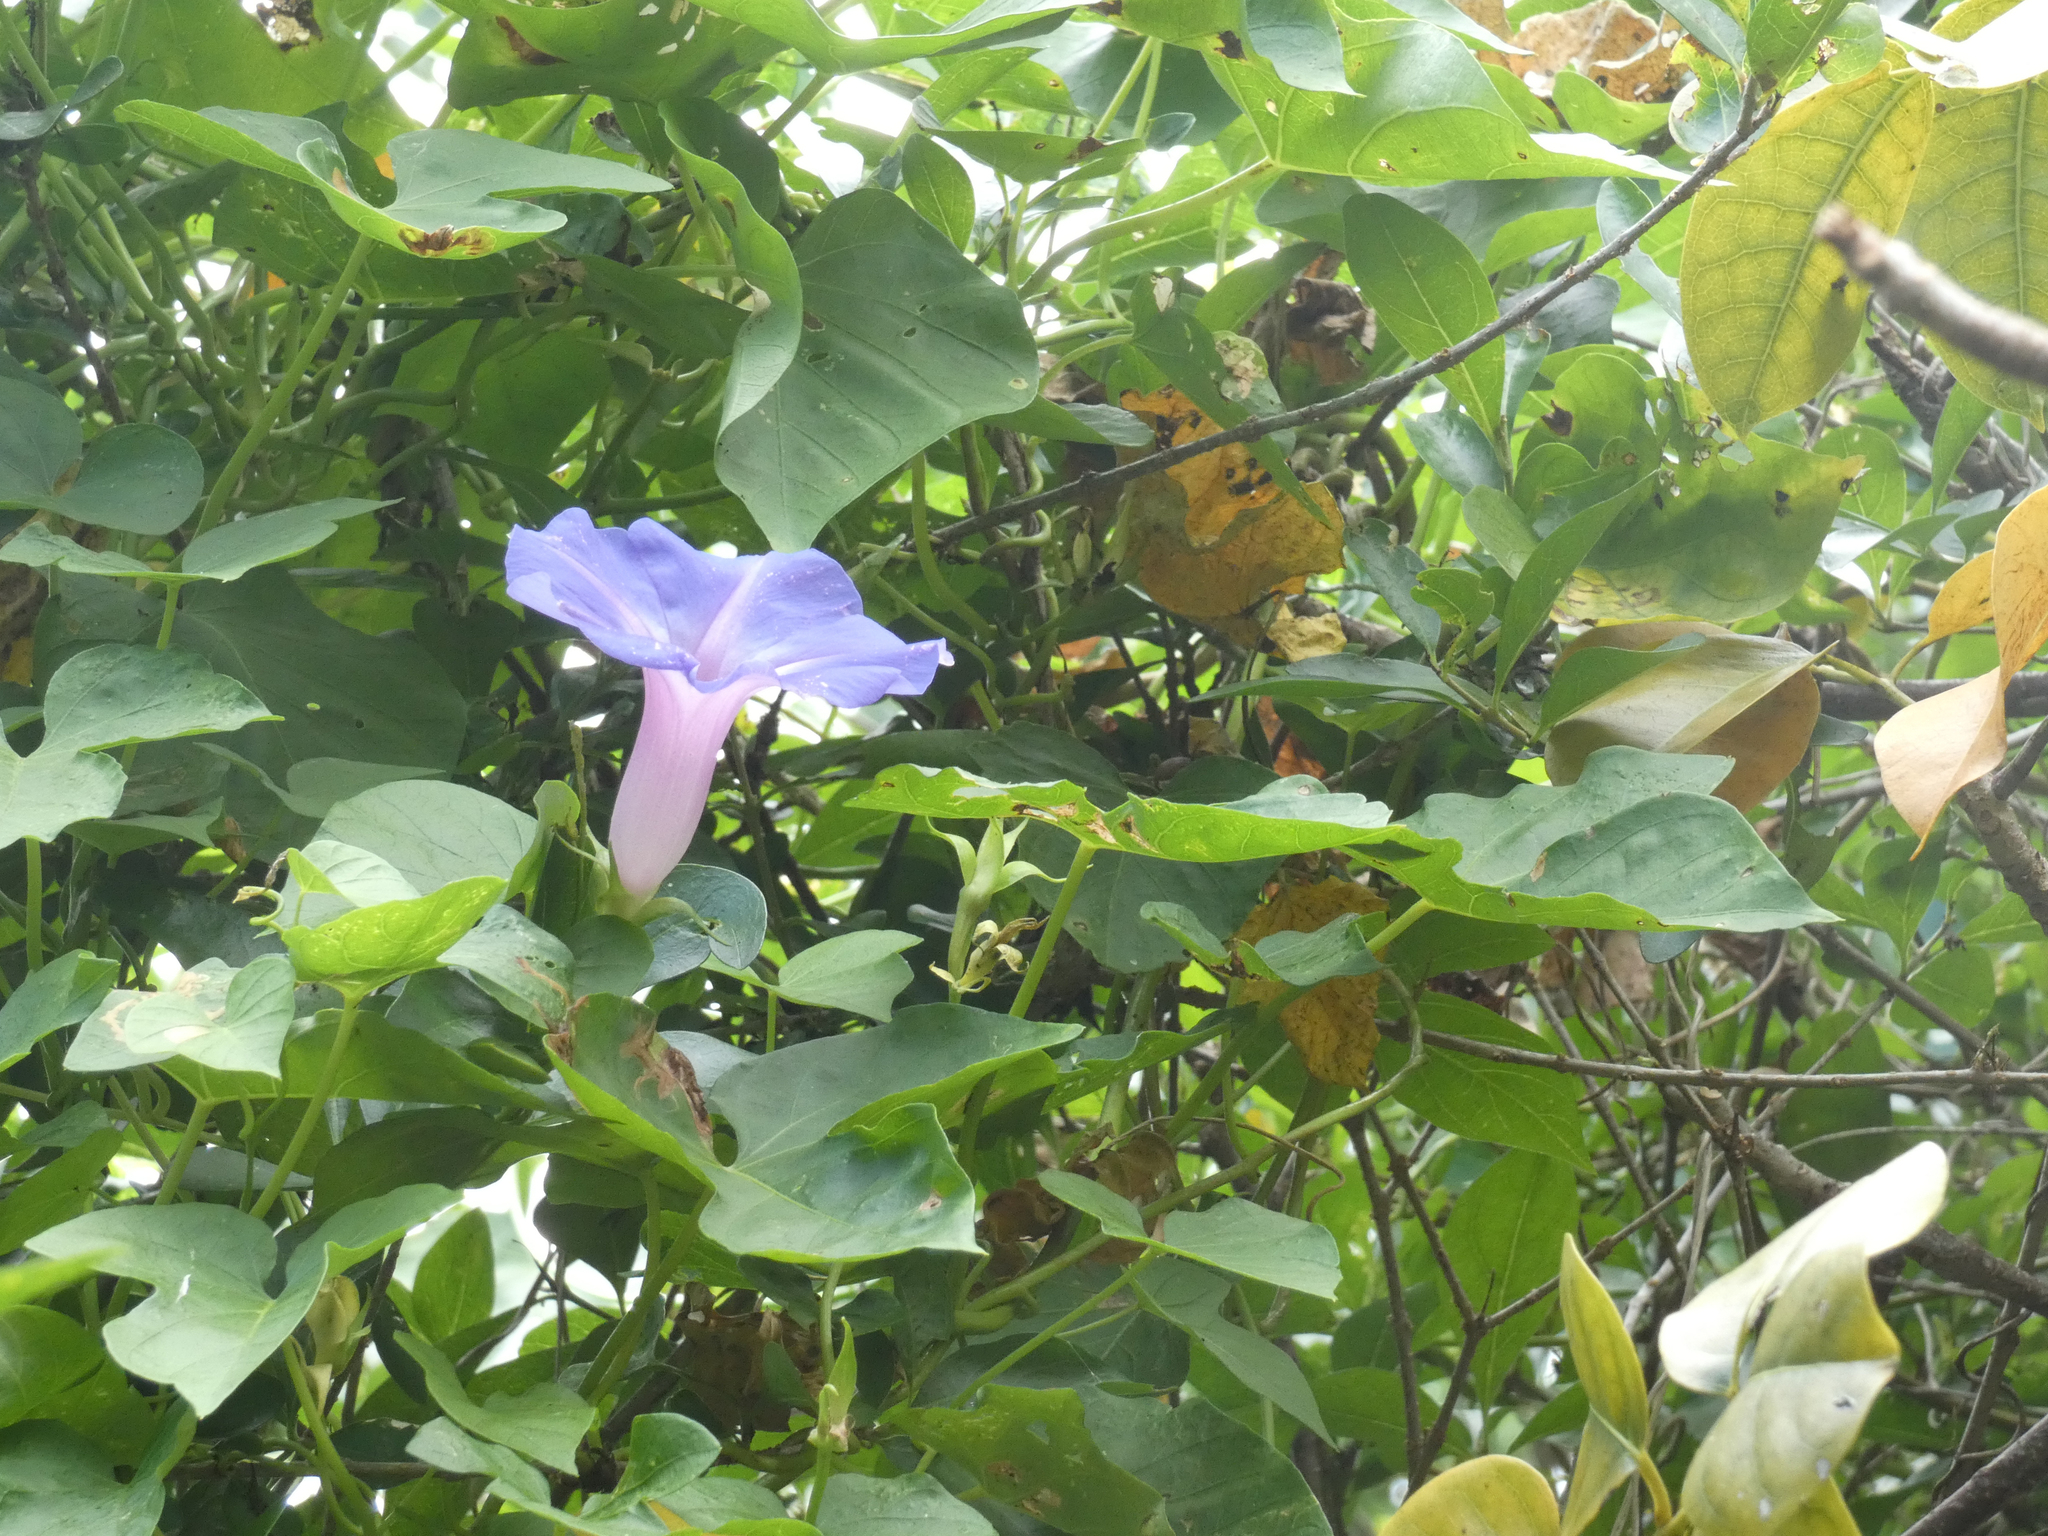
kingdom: Plantae
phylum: Tracheophyta
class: Magnoliopsida
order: Solanales
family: Convolvulaceae
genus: Ipomoea
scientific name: Ipomoea indica
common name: Blue dawnflower
